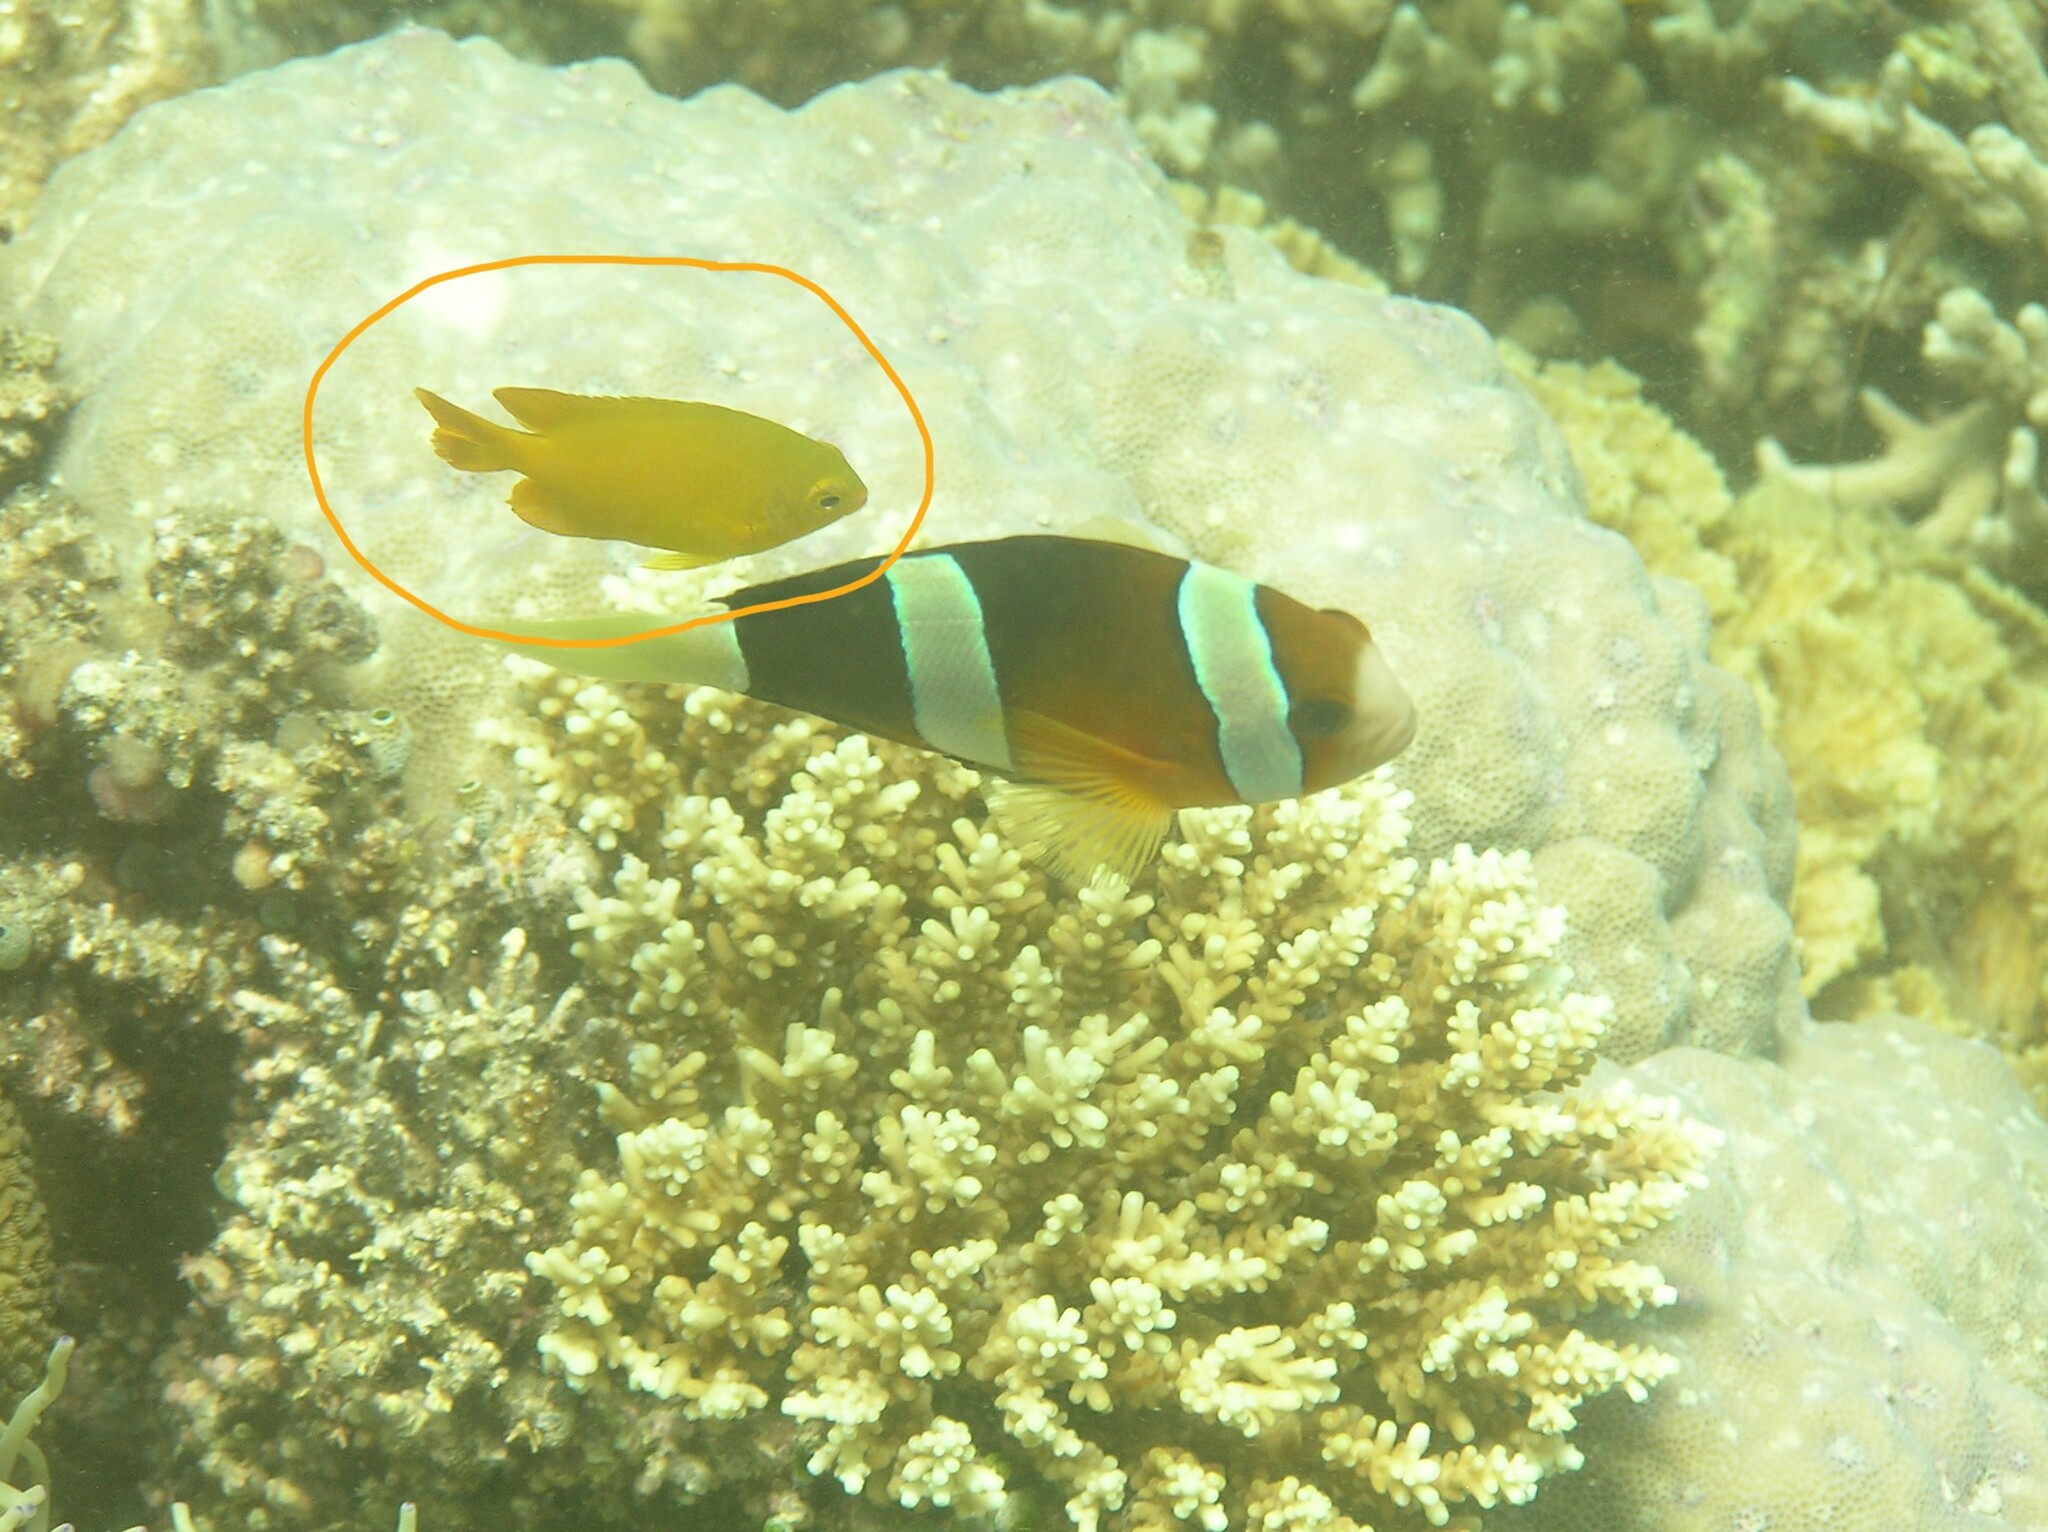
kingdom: Animalia
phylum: Chordata
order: Perciformes
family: Pomacentridae
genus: Pomacentrus
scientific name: Pomacentrus moluccensis
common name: Lemon damsel
